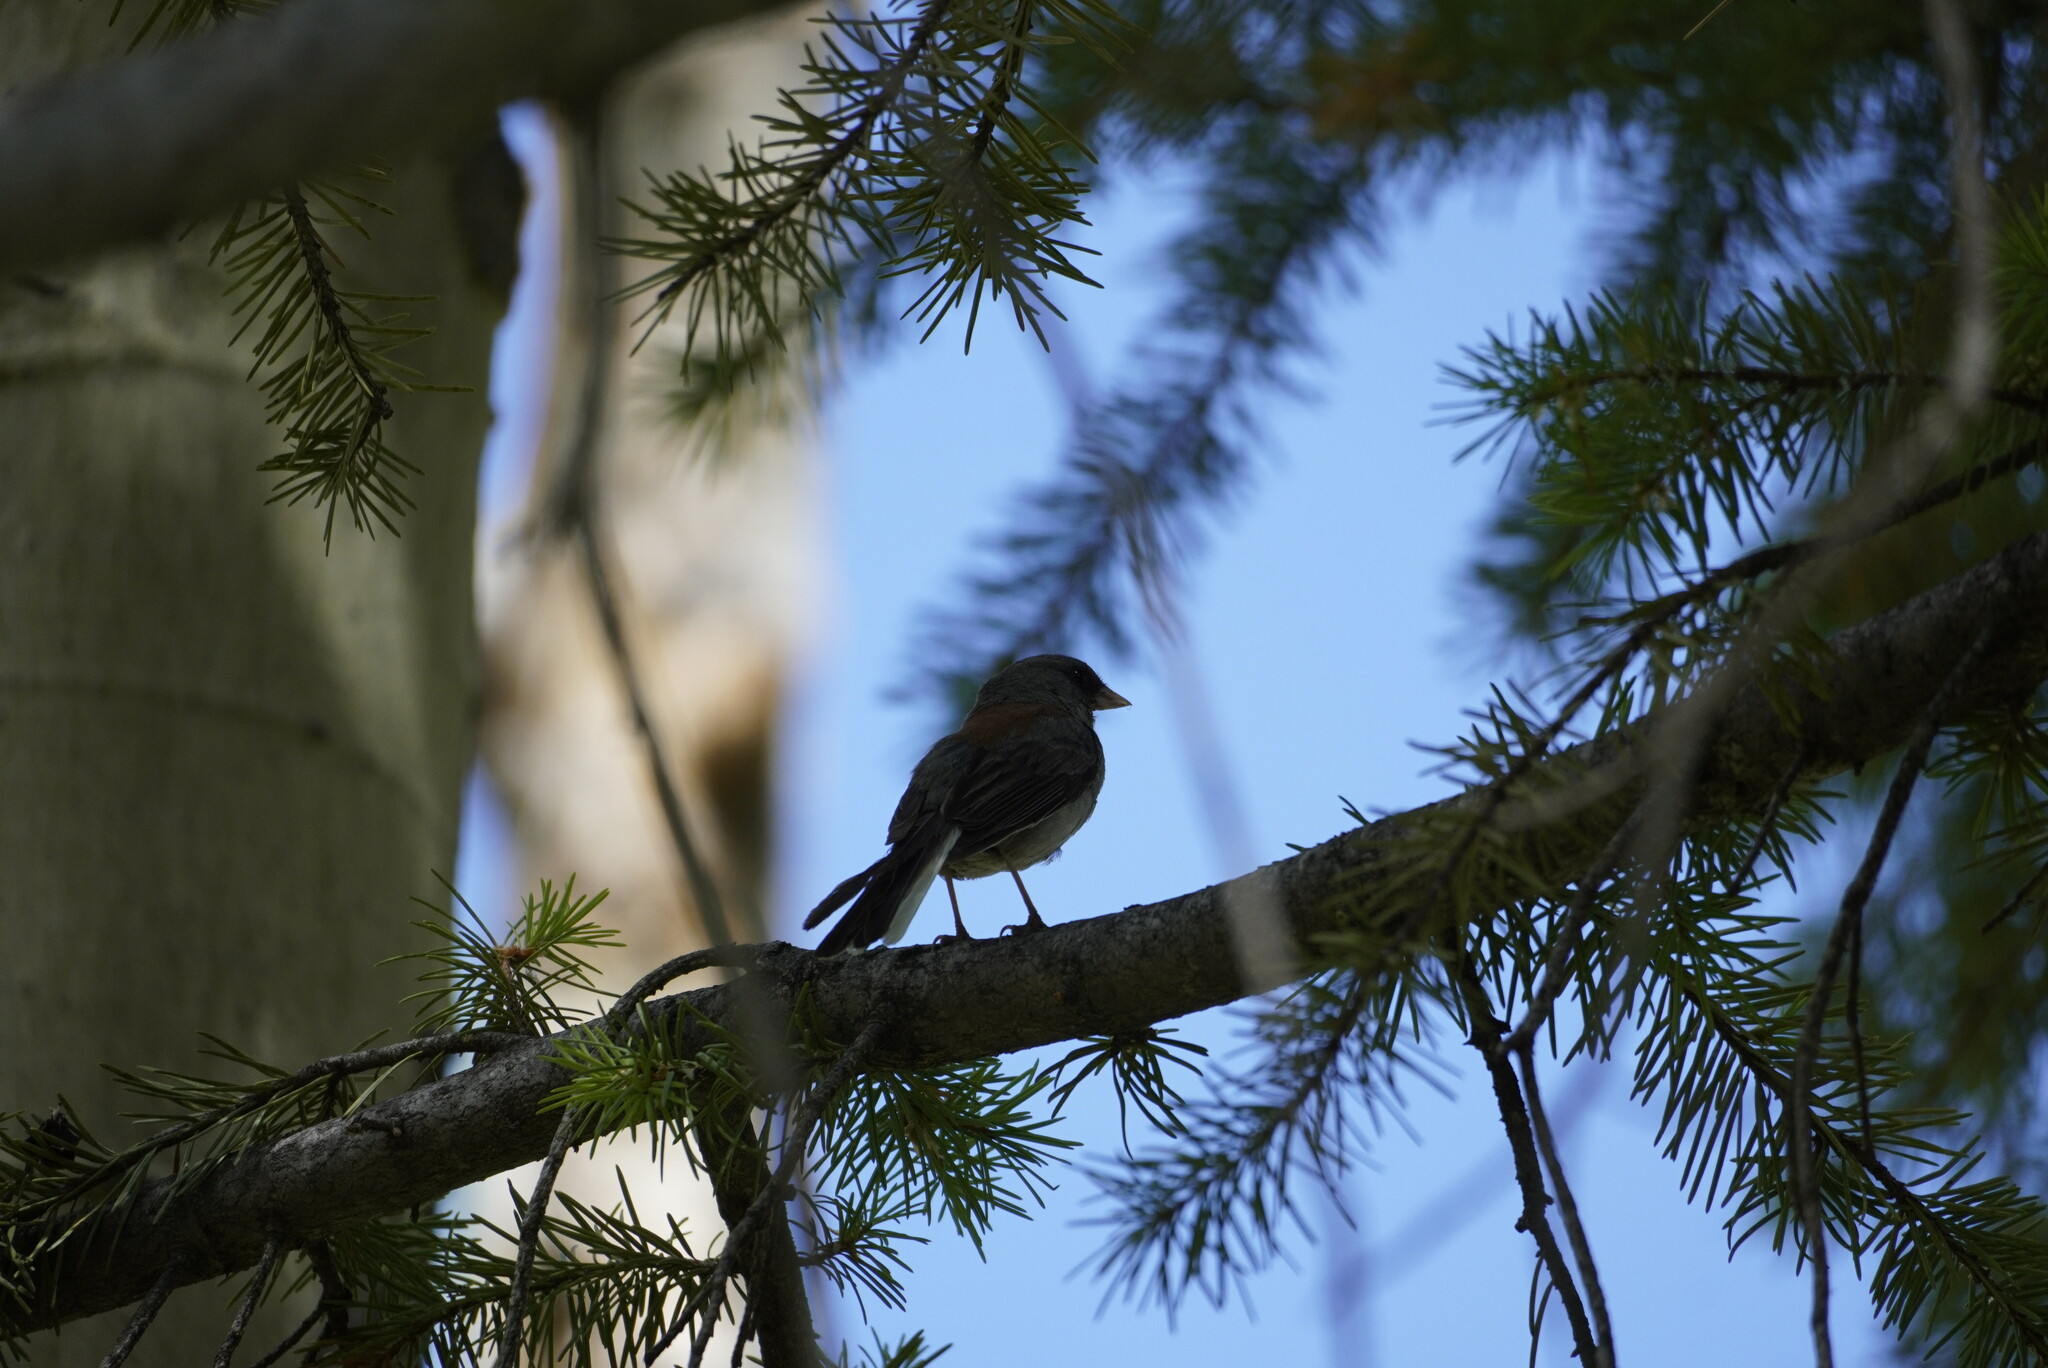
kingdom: Animalia
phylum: Chordata
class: Aves
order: Passeriformes
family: Passerellidae
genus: Junco
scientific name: Junco hyemalis
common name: Dark-eyed junco
